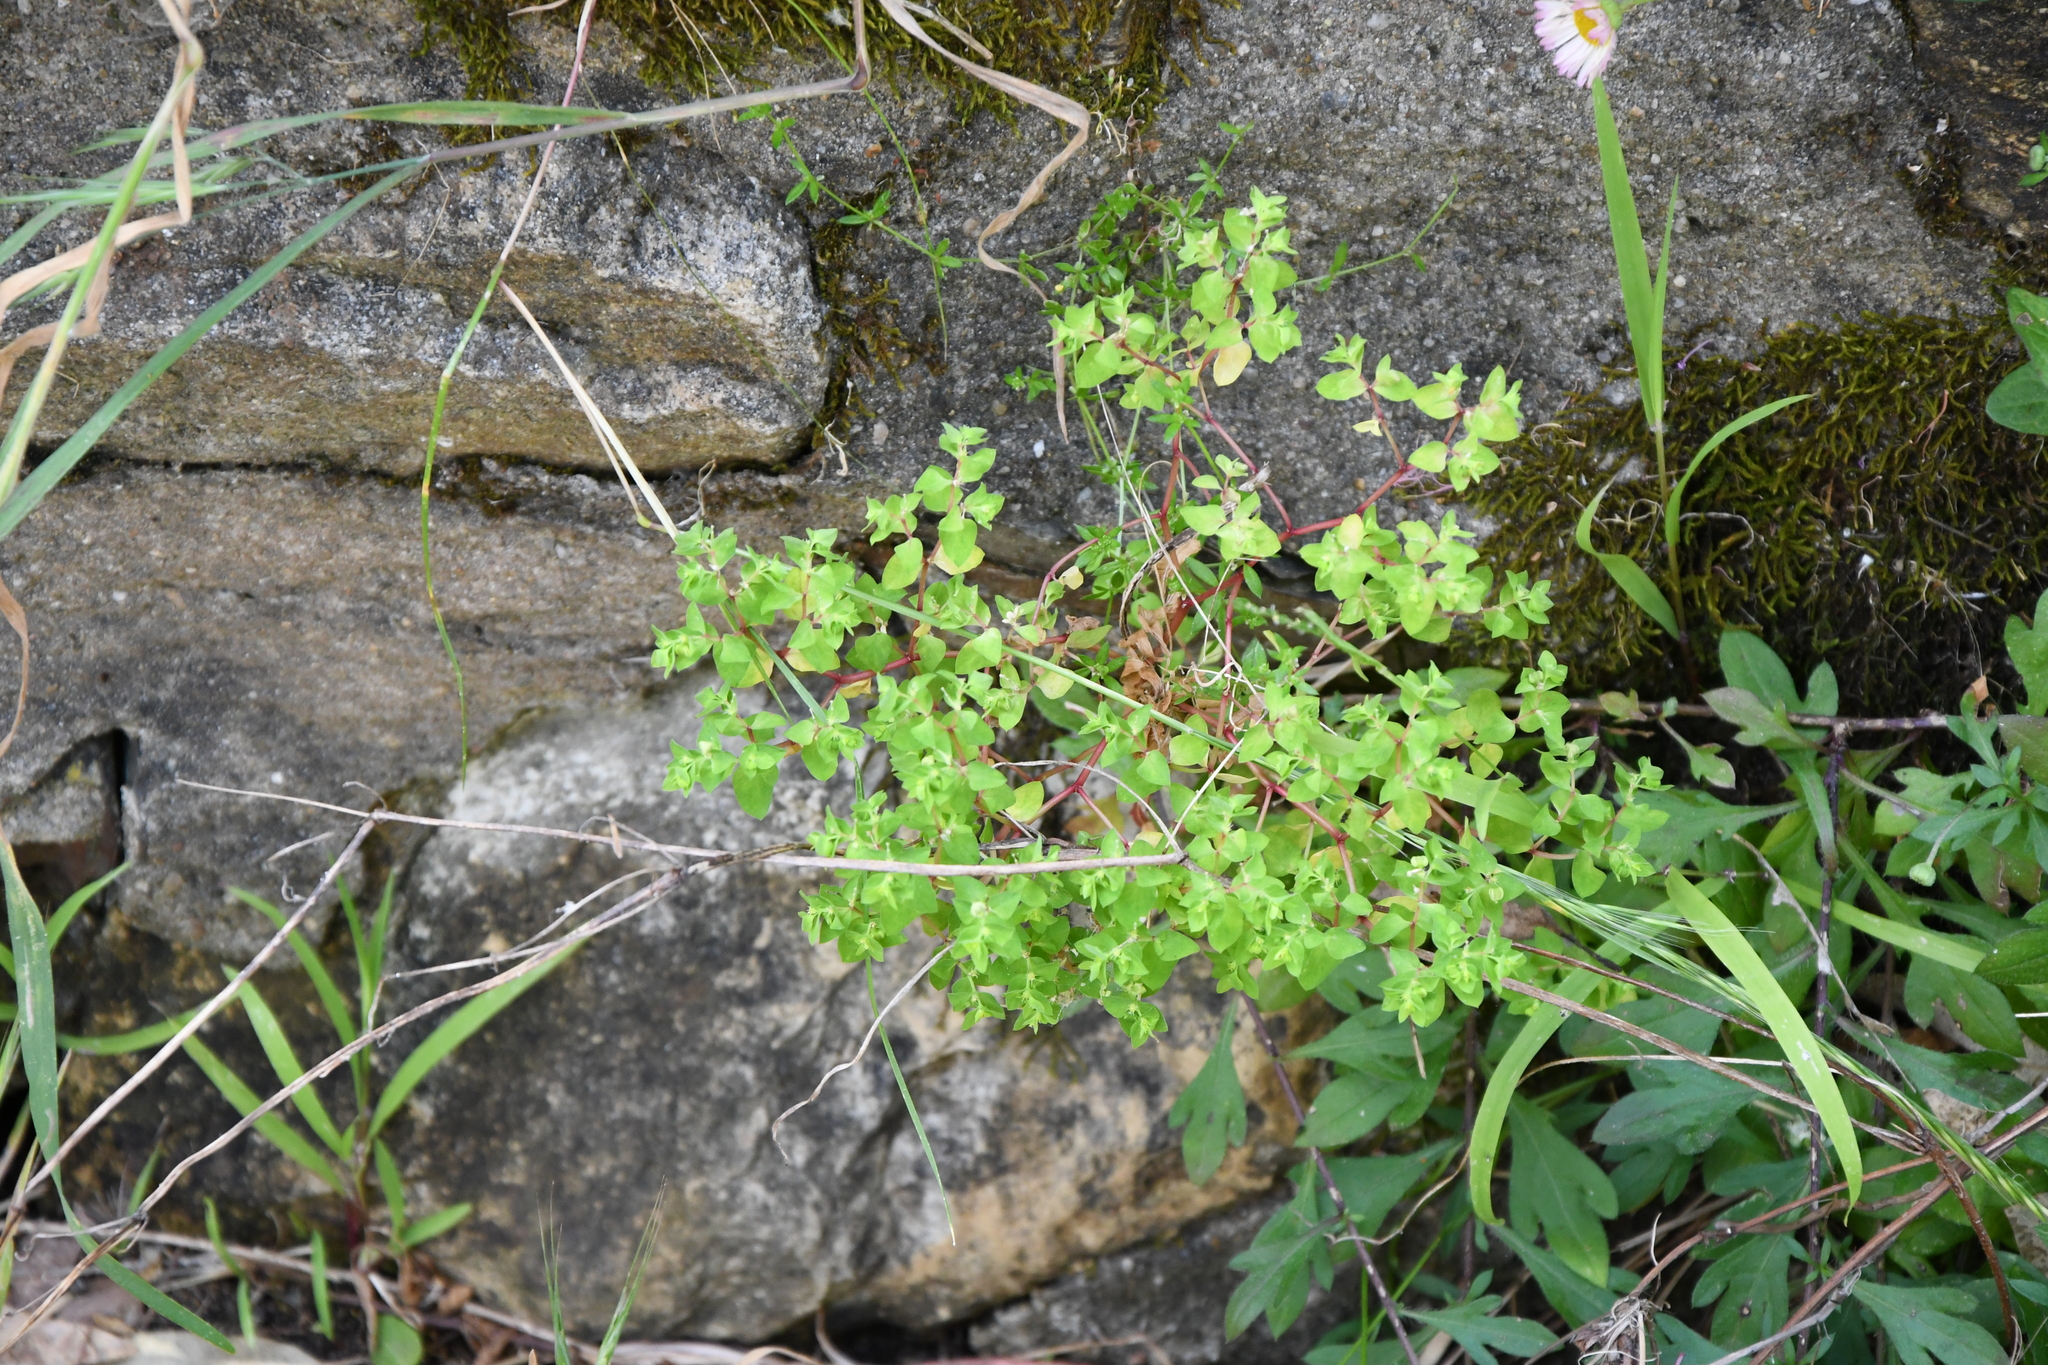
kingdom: Plantae
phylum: Tracheophyta
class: Magnoliopsida
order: Malpighiales
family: Euphorbiaceae
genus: Euphorbia
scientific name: Euphorbia terracina
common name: Geraldton carnation weed
